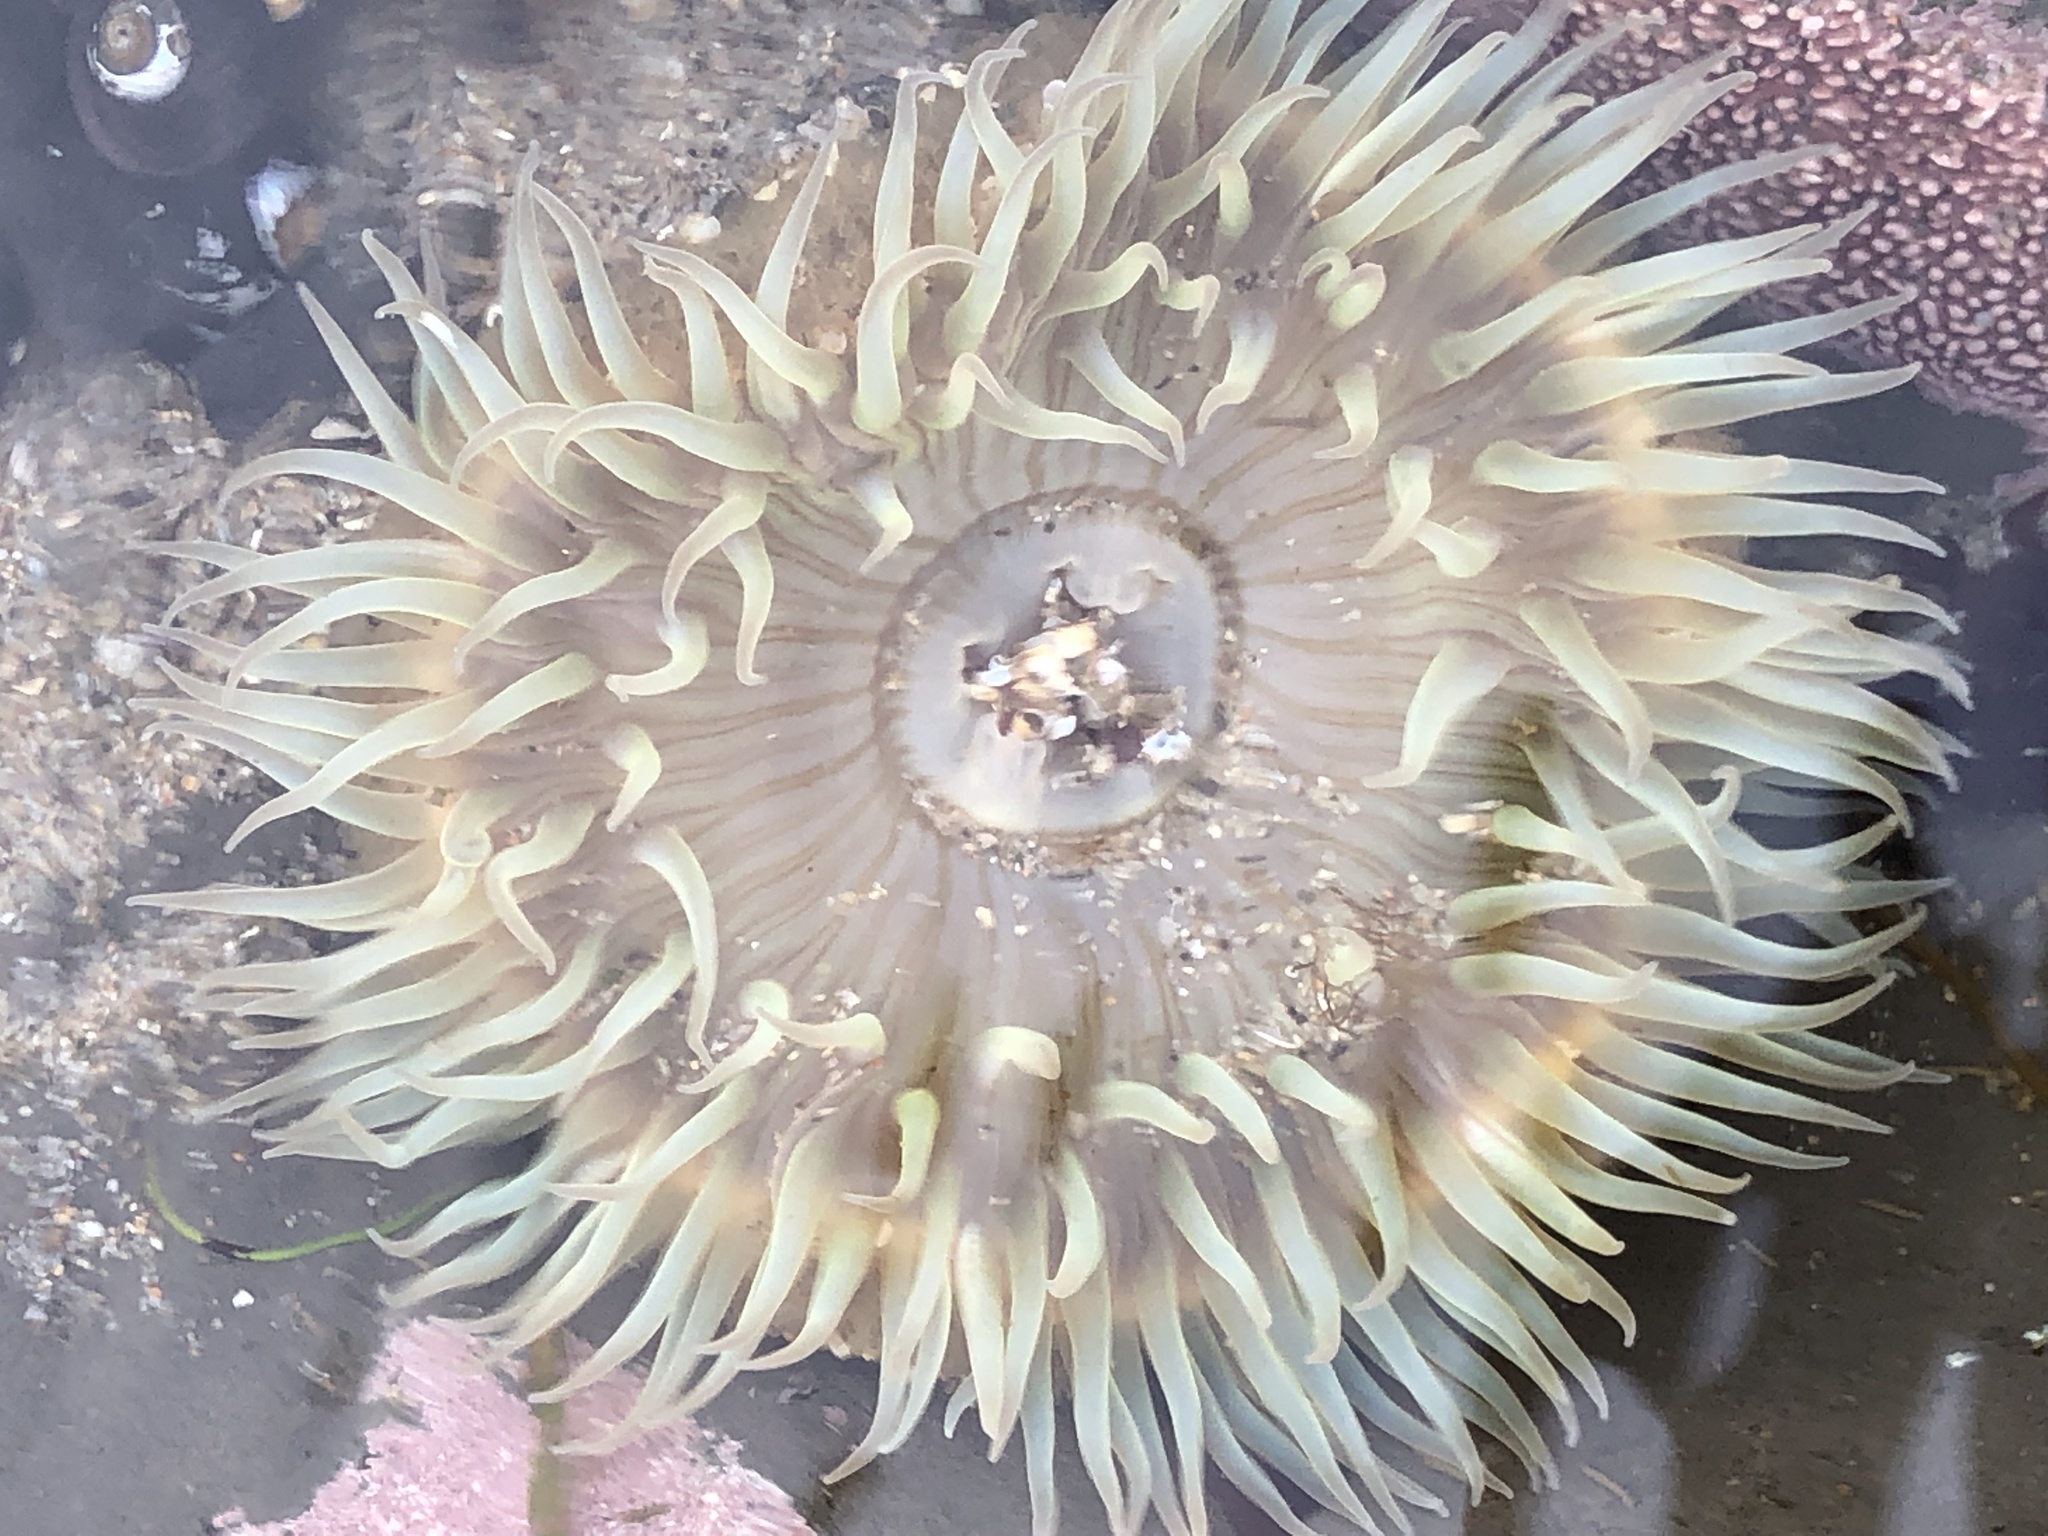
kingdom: Animalia
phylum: Cnidaria
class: Anthozoa
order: Actiniaria
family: Actiniidae
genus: Anthopleura
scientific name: Anthopleura sola
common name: Sun anemone
